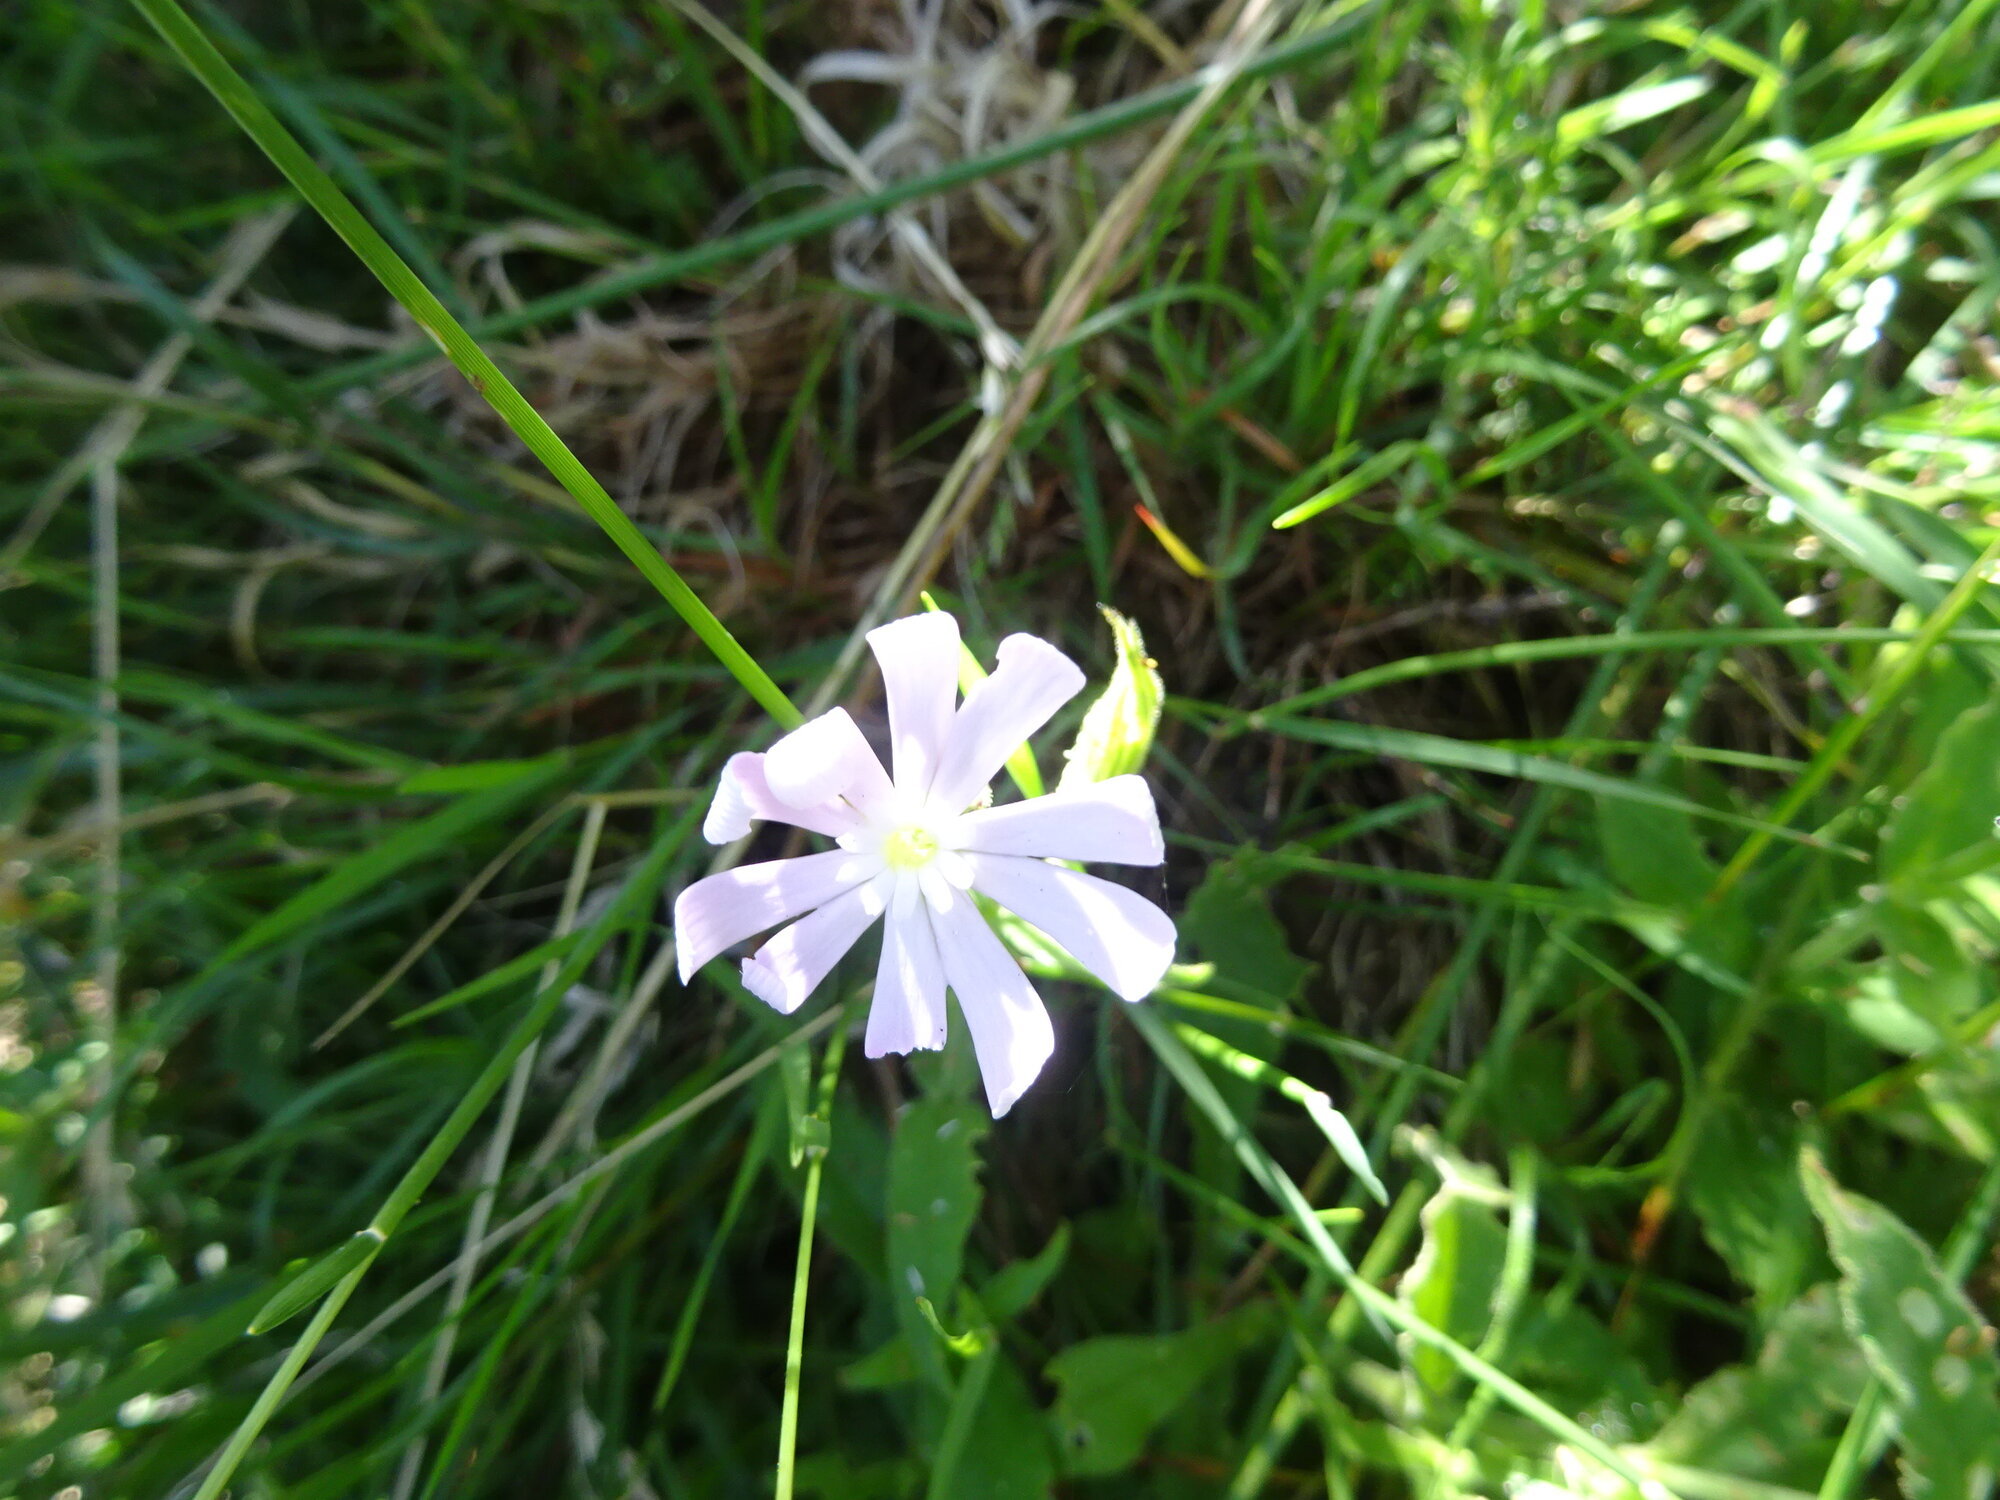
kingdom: Plantae
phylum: Tracheophyta
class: Magnoliopsida
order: Caryophyllales
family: Caryophyllaceae
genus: Silene
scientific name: Silene undulata
